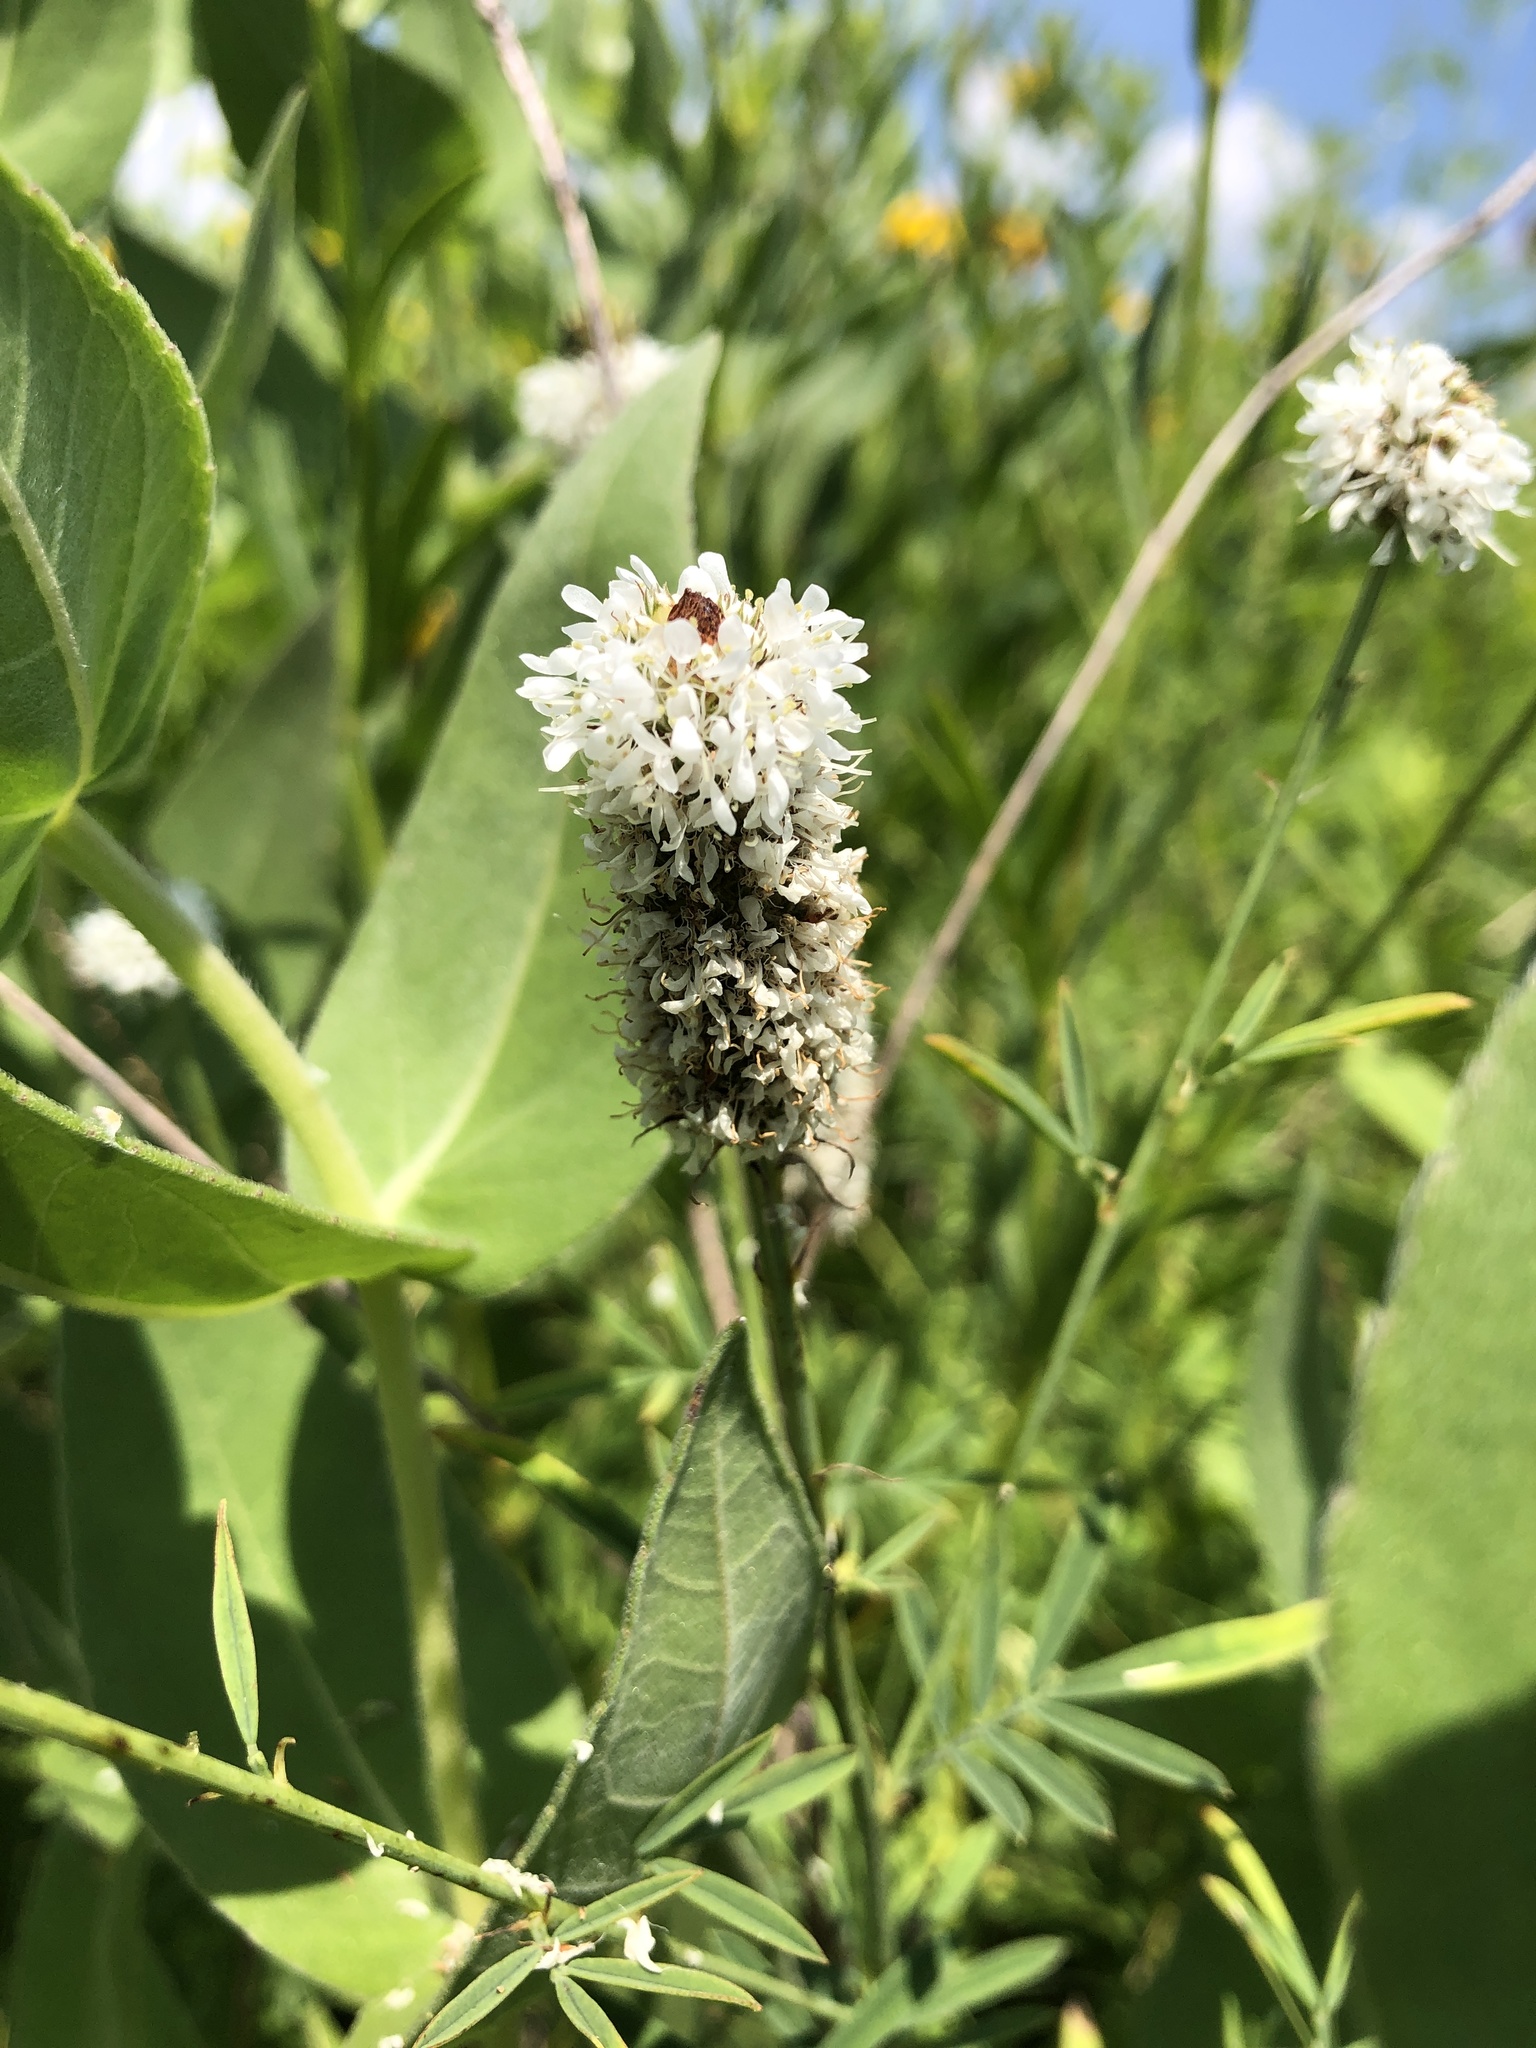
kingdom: Plantae
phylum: Tracheophyta
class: Magnoliopsida
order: Fabales
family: Fabaceae
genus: Dalea
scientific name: Dalea candida
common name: White prairie-clover
